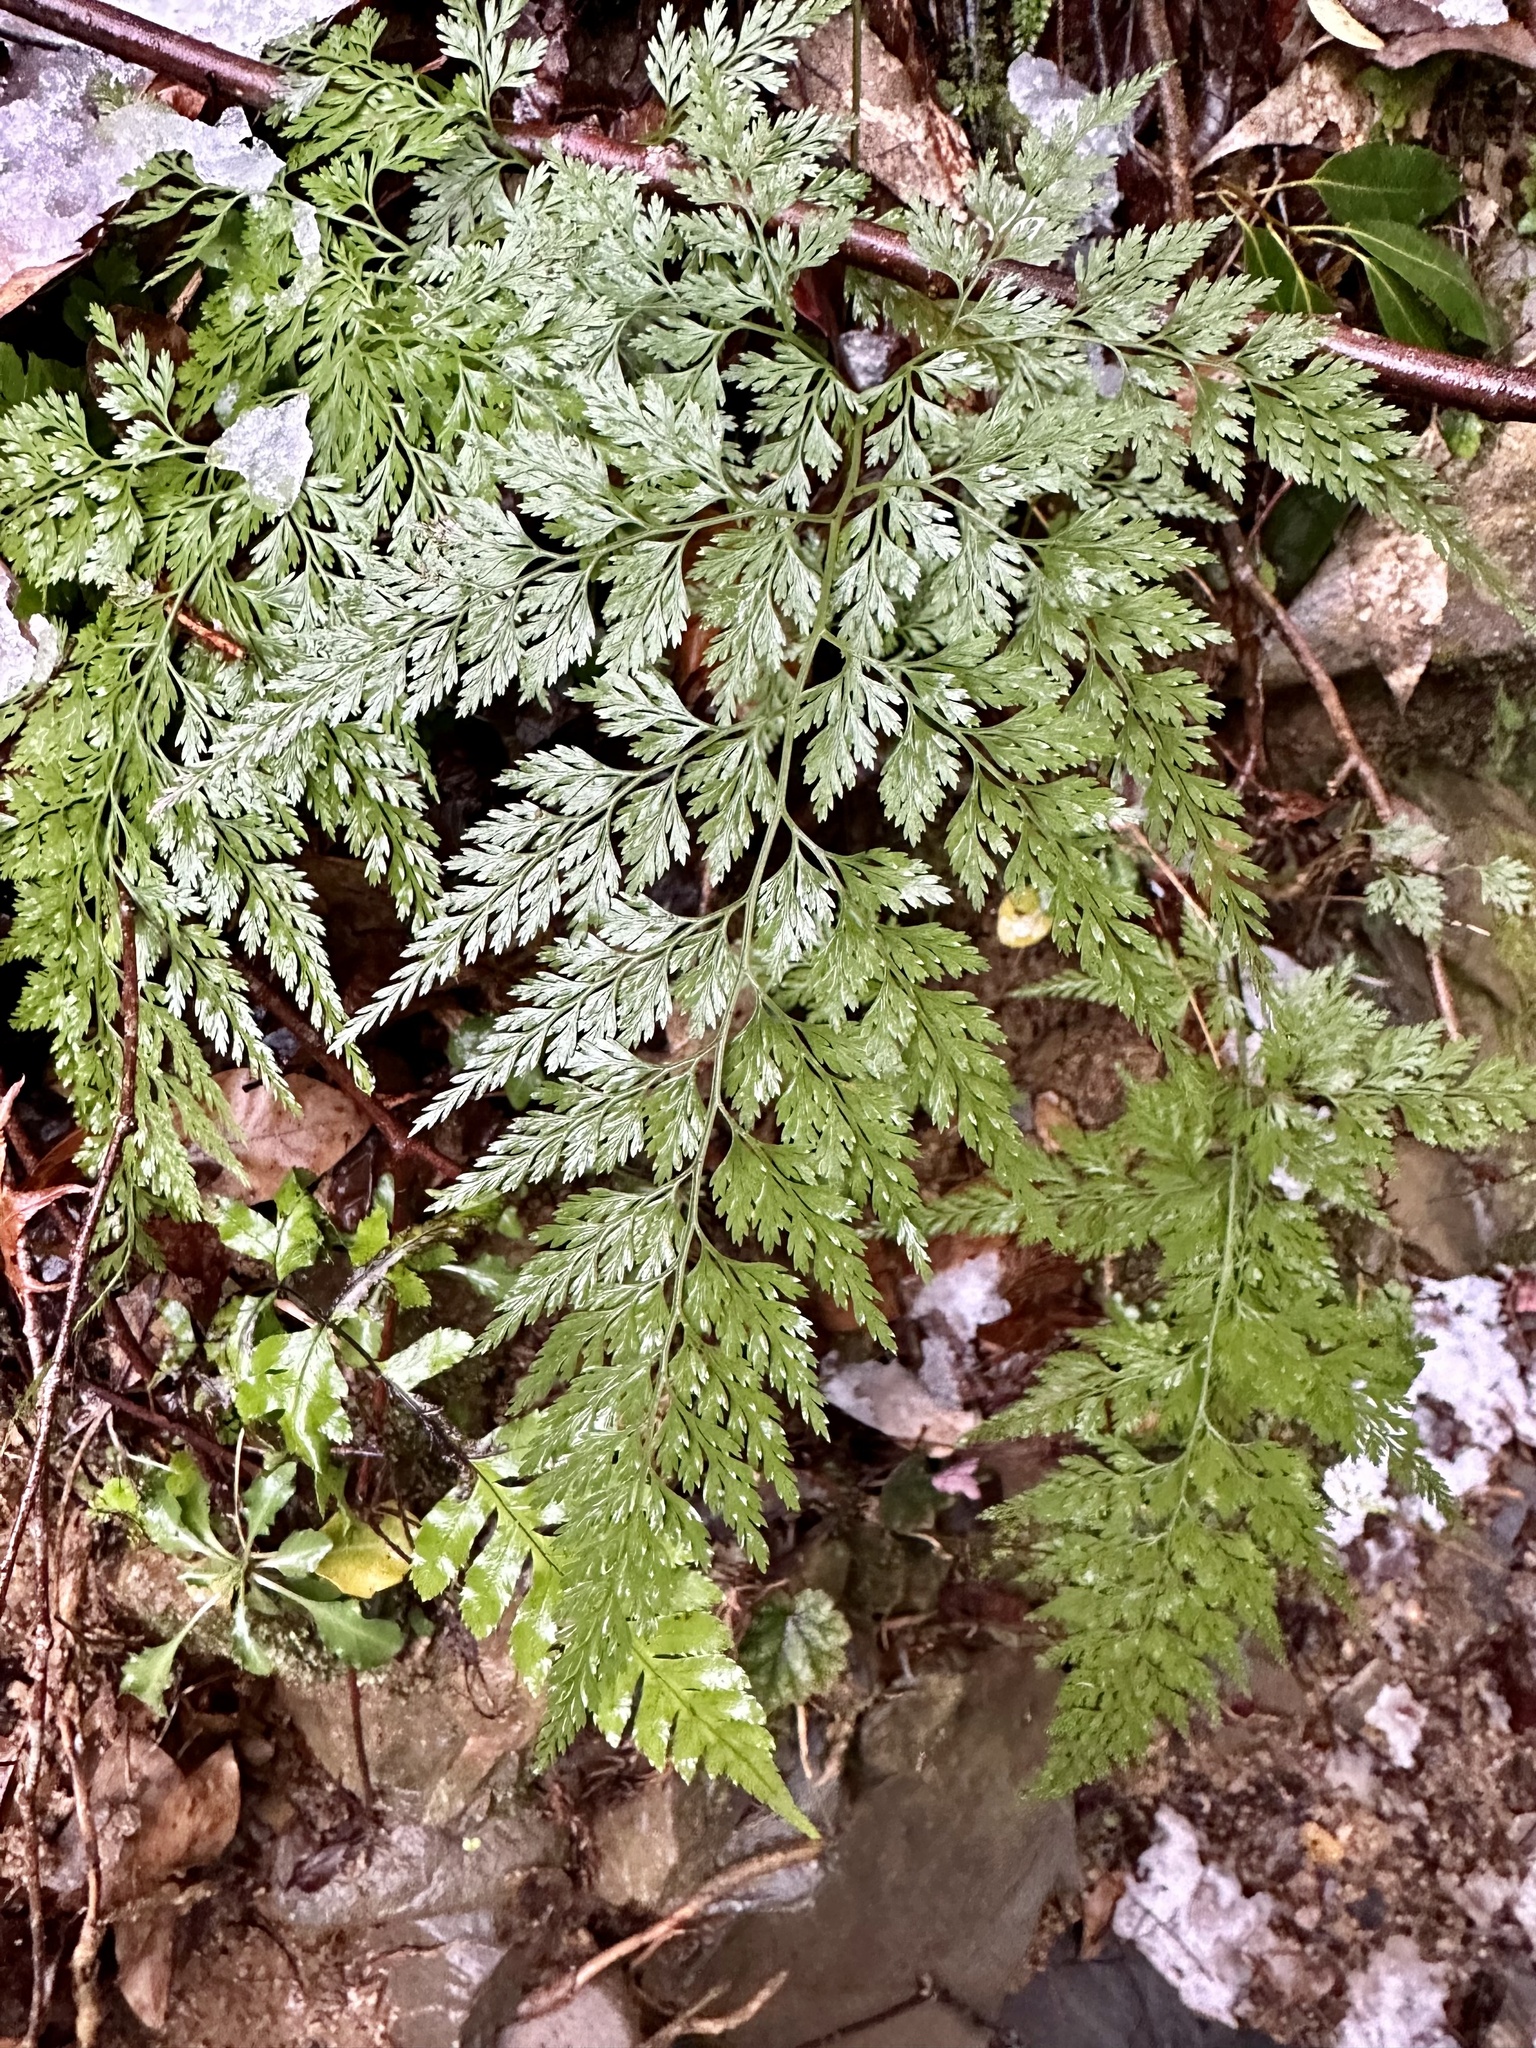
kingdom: Plantae
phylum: Tracheophyta
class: Polypodiopsida
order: Polypodiales
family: Pteridaceae
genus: Onychium
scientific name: Onychium japonicum
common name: Carrot fern
